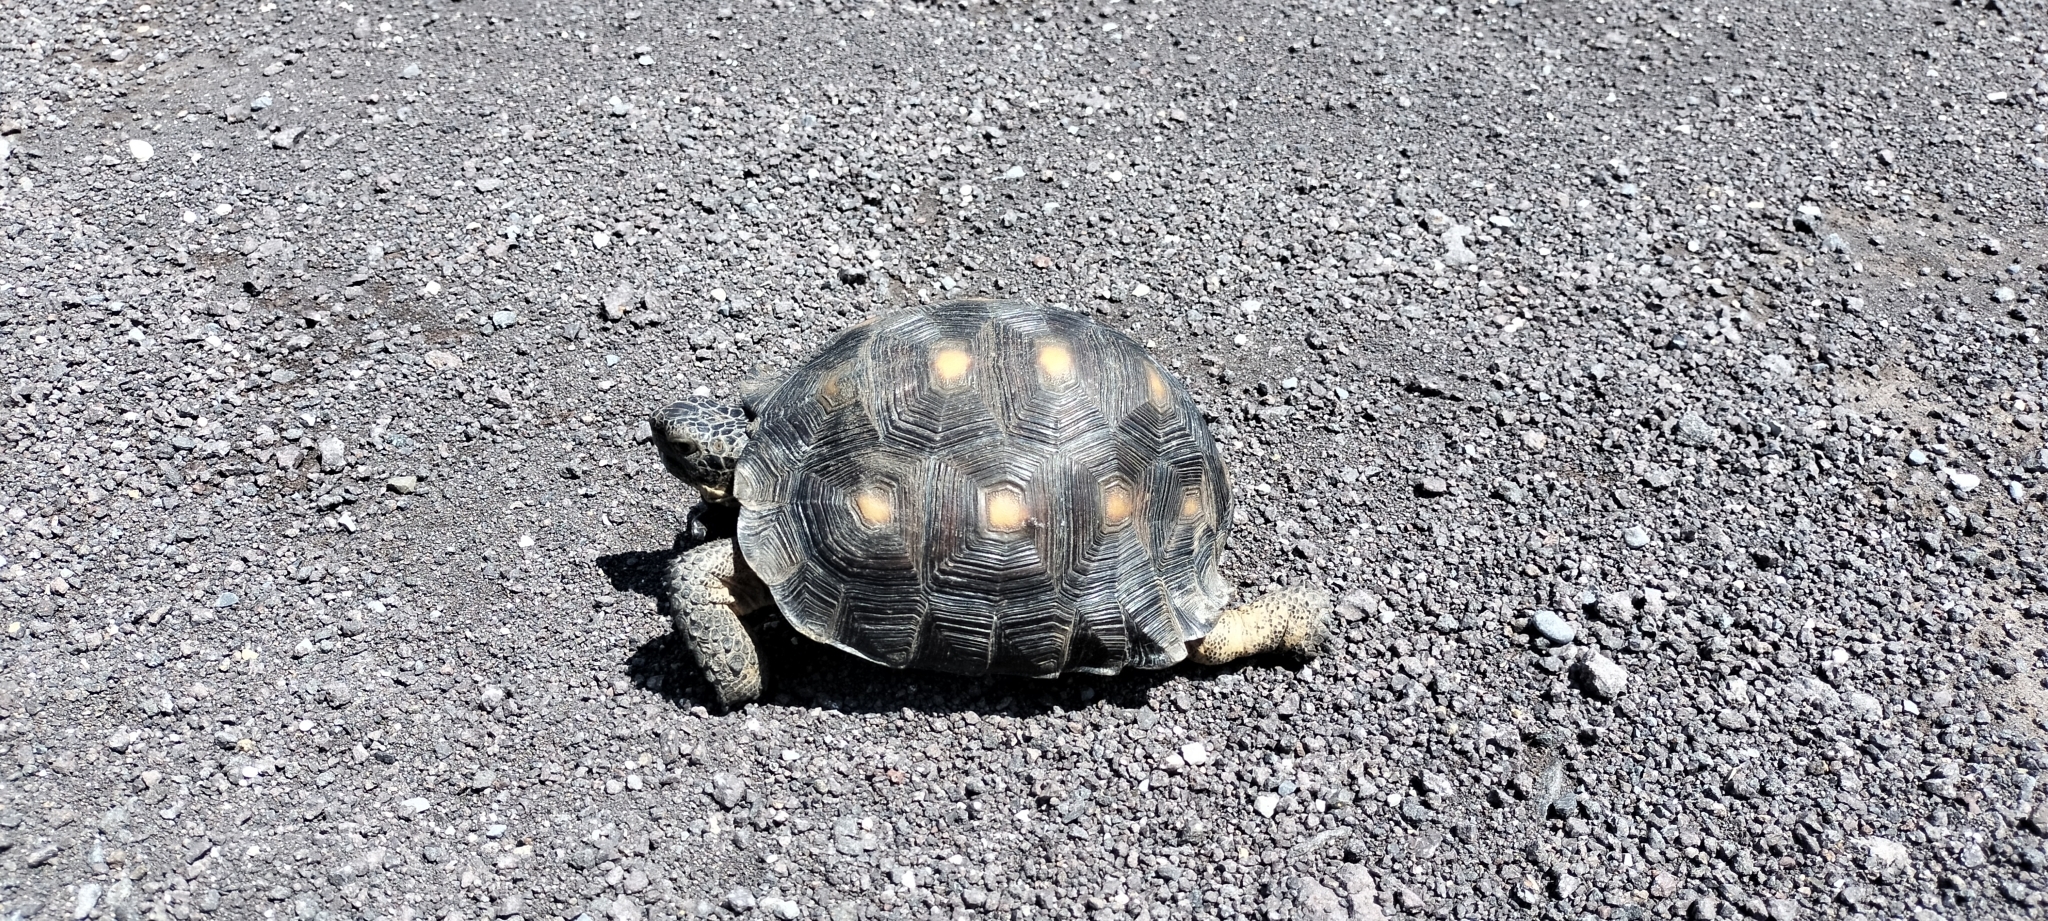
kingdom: Animalia
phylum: Chordata
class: Testudines
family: Testudinidae
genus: Gopherus
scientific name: Gopherus berlandieri
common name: Texas (gopher )tortoise
